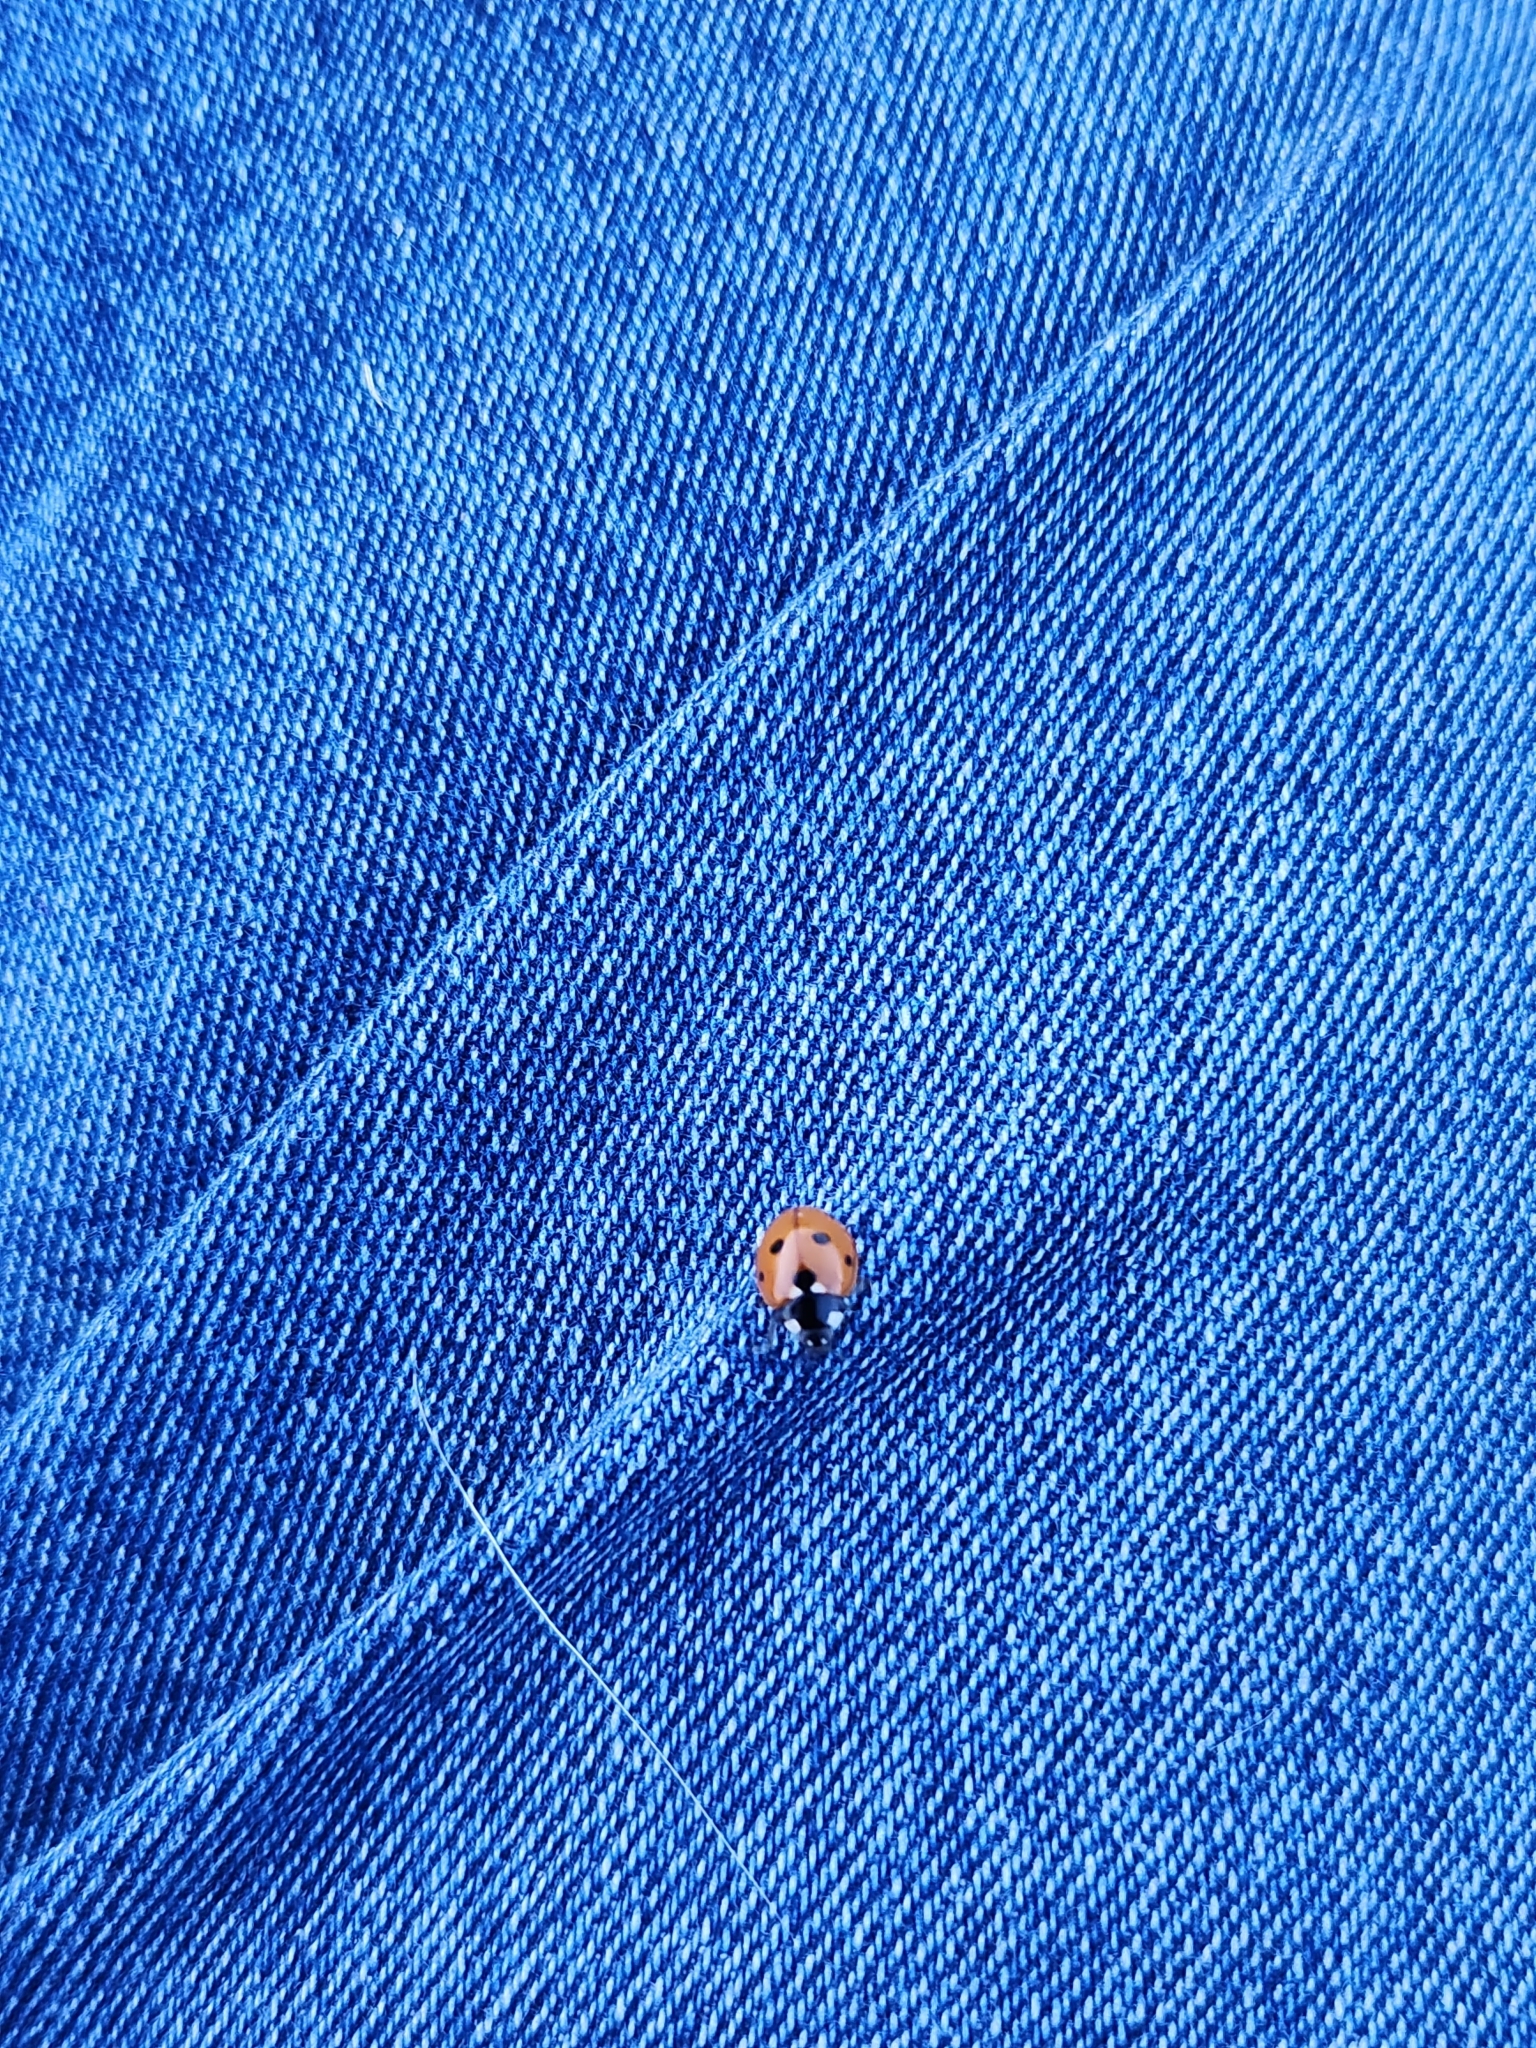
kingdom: Animalia
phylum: Arthropoda
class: Insecta
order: Coleoptera
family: Coccinellidae
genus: Coccinella
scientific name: Coccinella septempunctata
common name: Sevenspotted lady beetle
